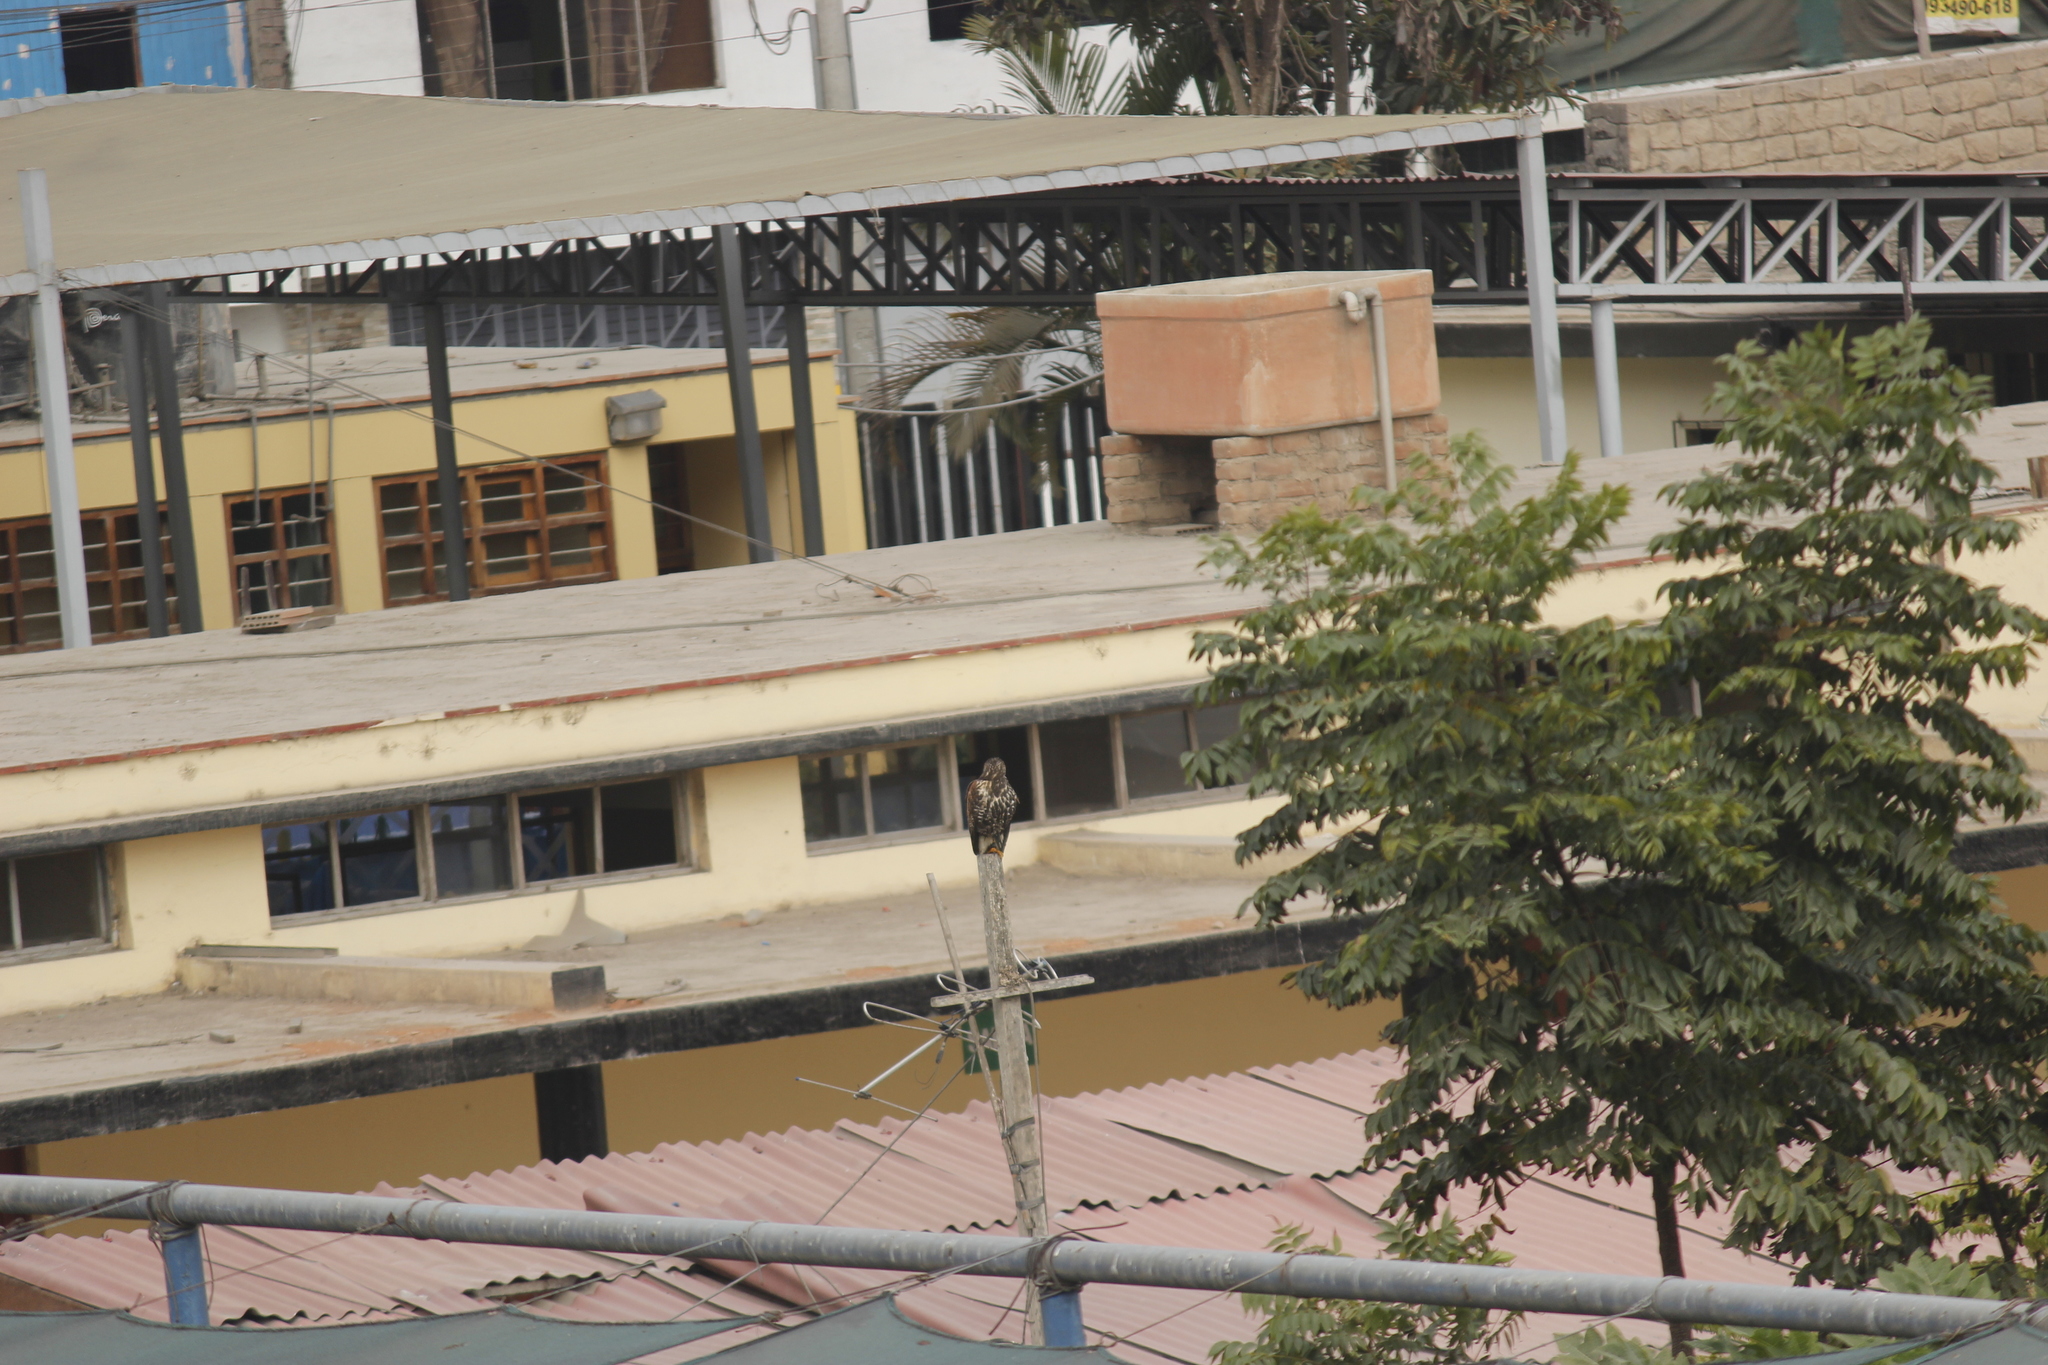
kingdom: Animalia
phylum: Chordata
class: Aves
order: Accipitriformes
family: Accipitridae
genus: Parabuteo
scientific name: Parabuteo unicinctus
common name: Harris's hawk
